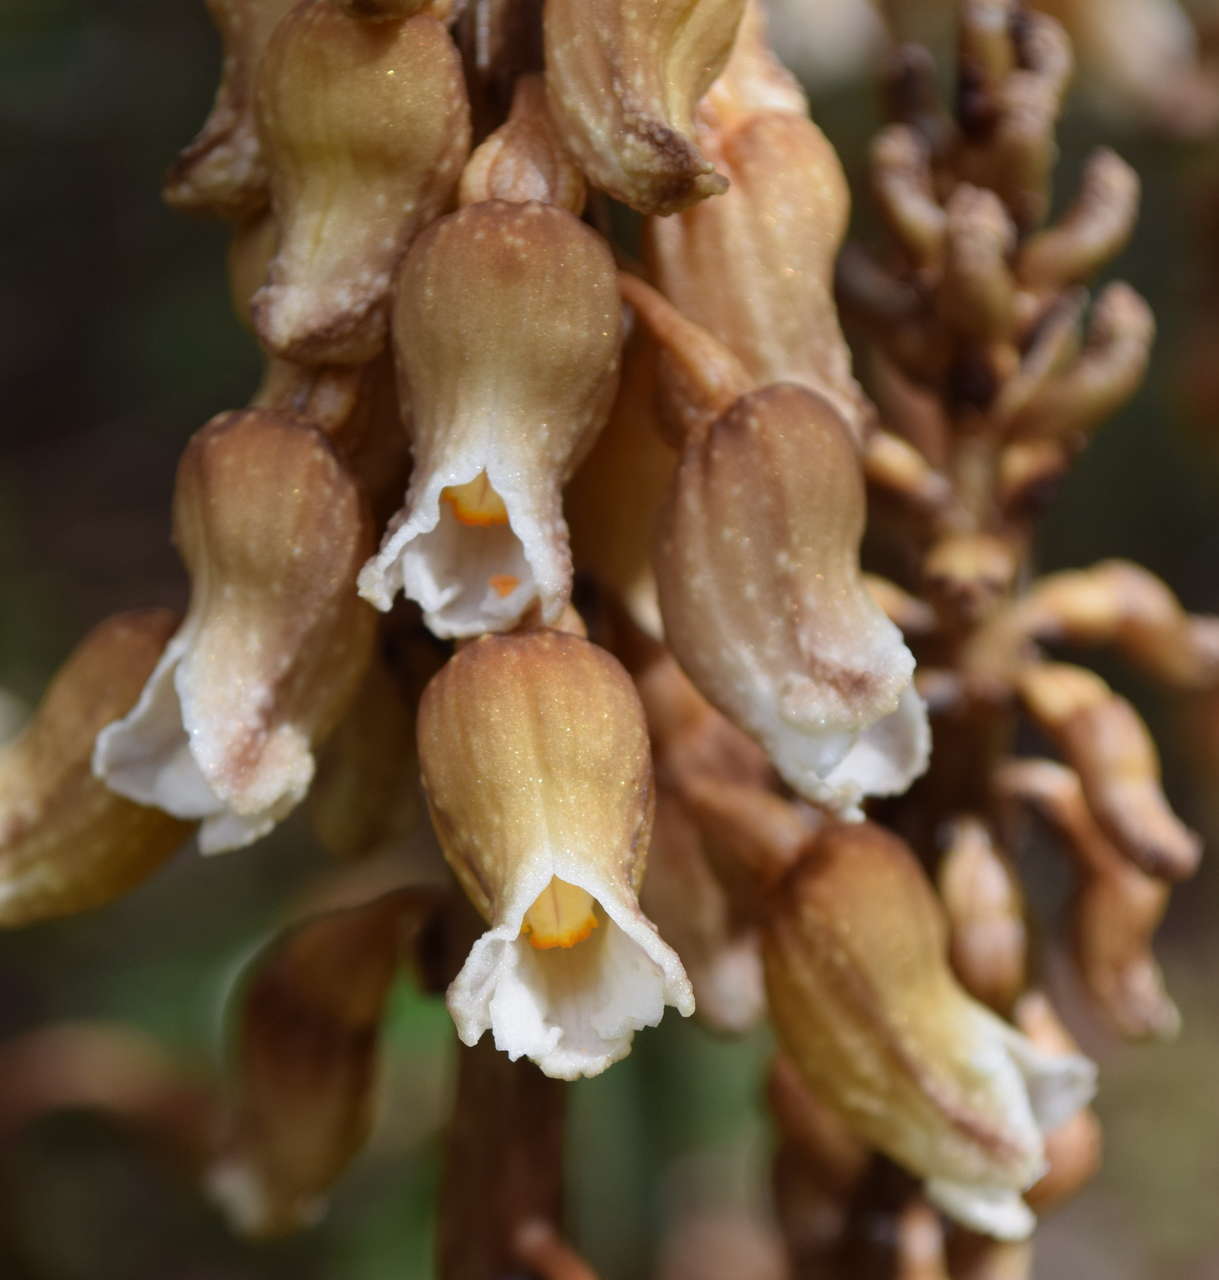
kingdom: Plantae
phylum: Tracheophyta
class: Liliopsida
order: Asparagales
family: Orchidaceae
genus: Gastrodia
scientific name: Gastrodia procera
